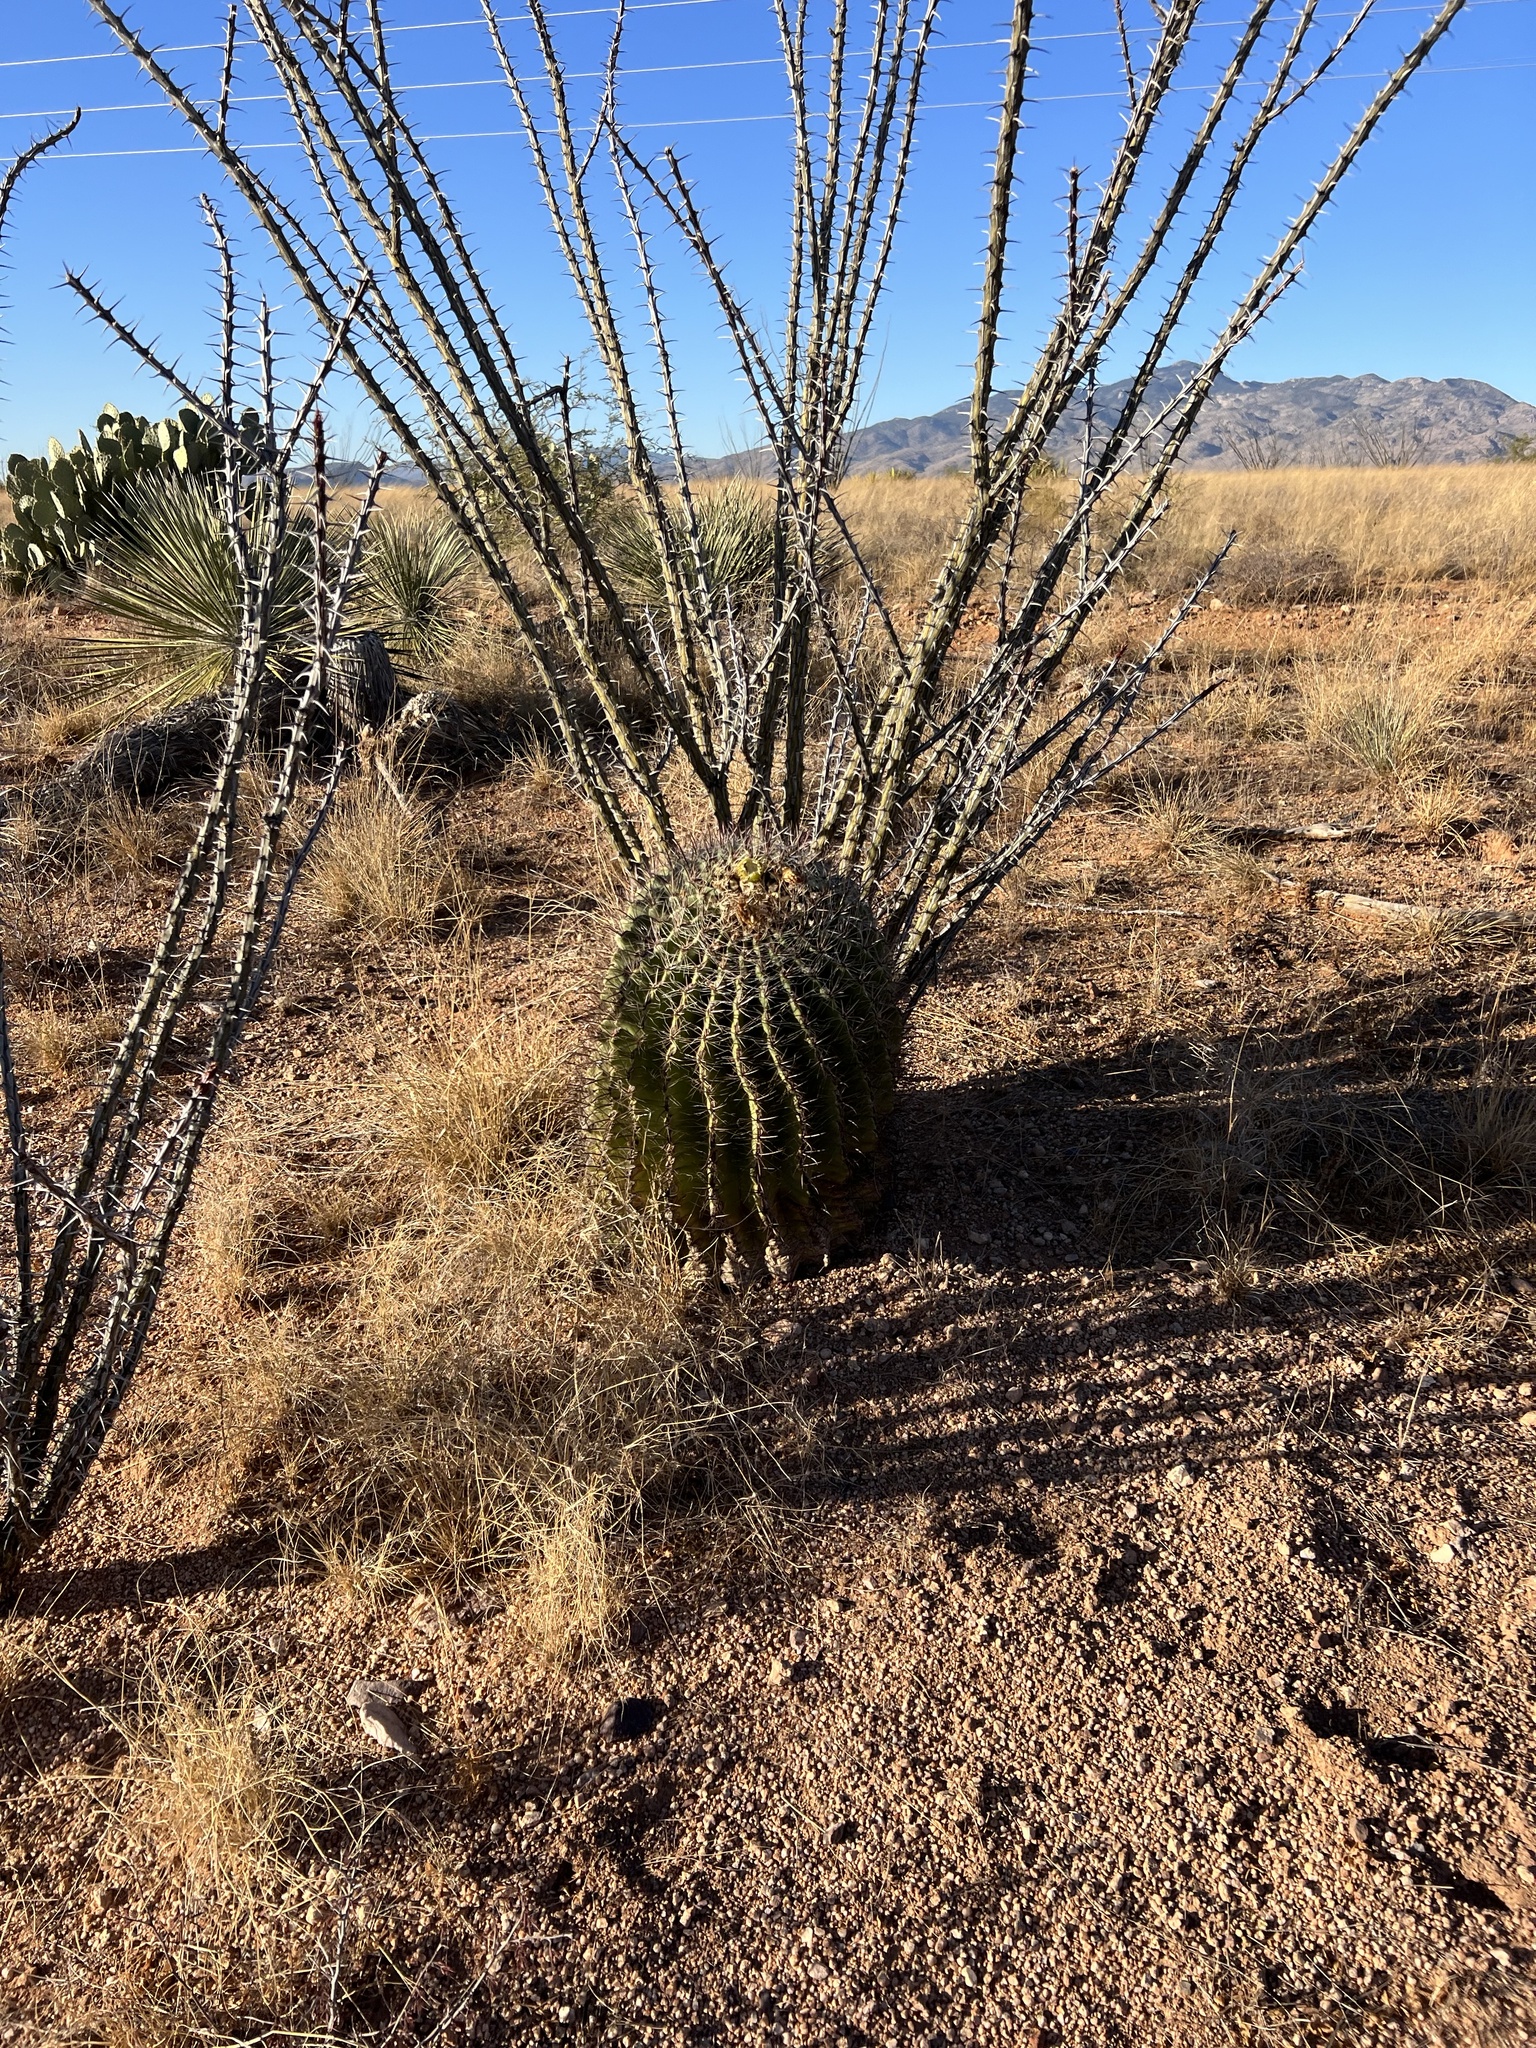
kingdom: Plantae
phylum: Tracheophyta
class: Magnoliopsida
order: Caryophyllales
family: Cactaceae
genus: Ferocactus
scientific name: Ferocactus wislizeni
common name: Candy barrel cactus
